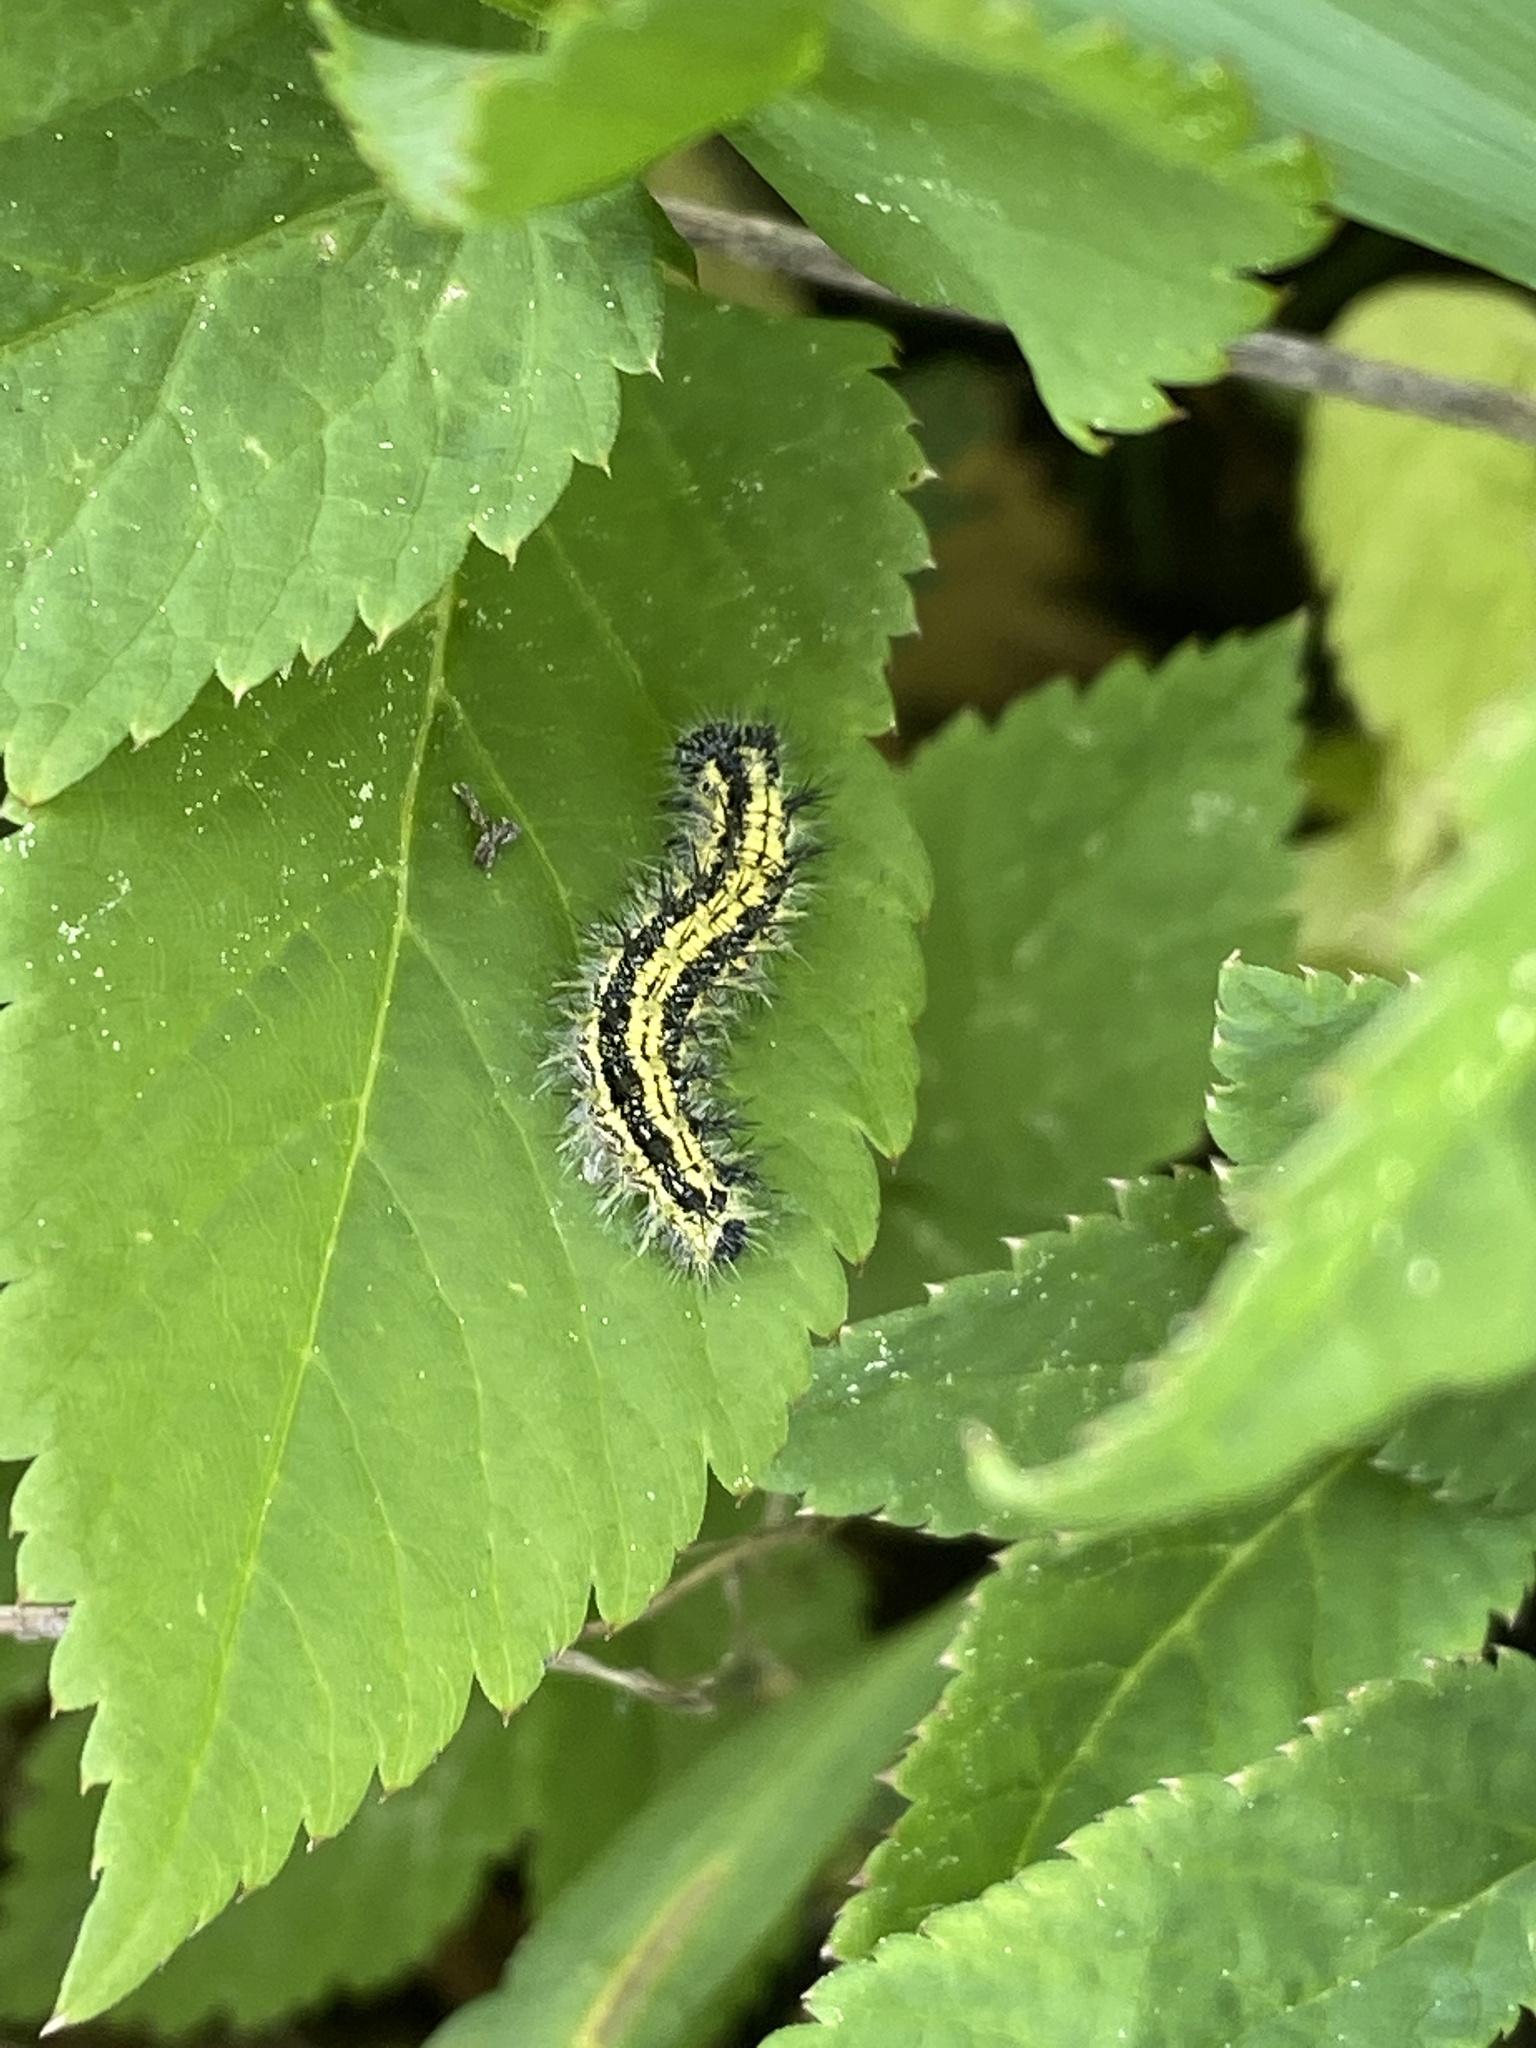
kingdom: Animalia
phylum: Arthropoda
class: Insecta
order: Lepidoptera
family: Nymphalidae
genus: Aglais
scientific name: Aglais urticae
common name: Small tortoiseshell
